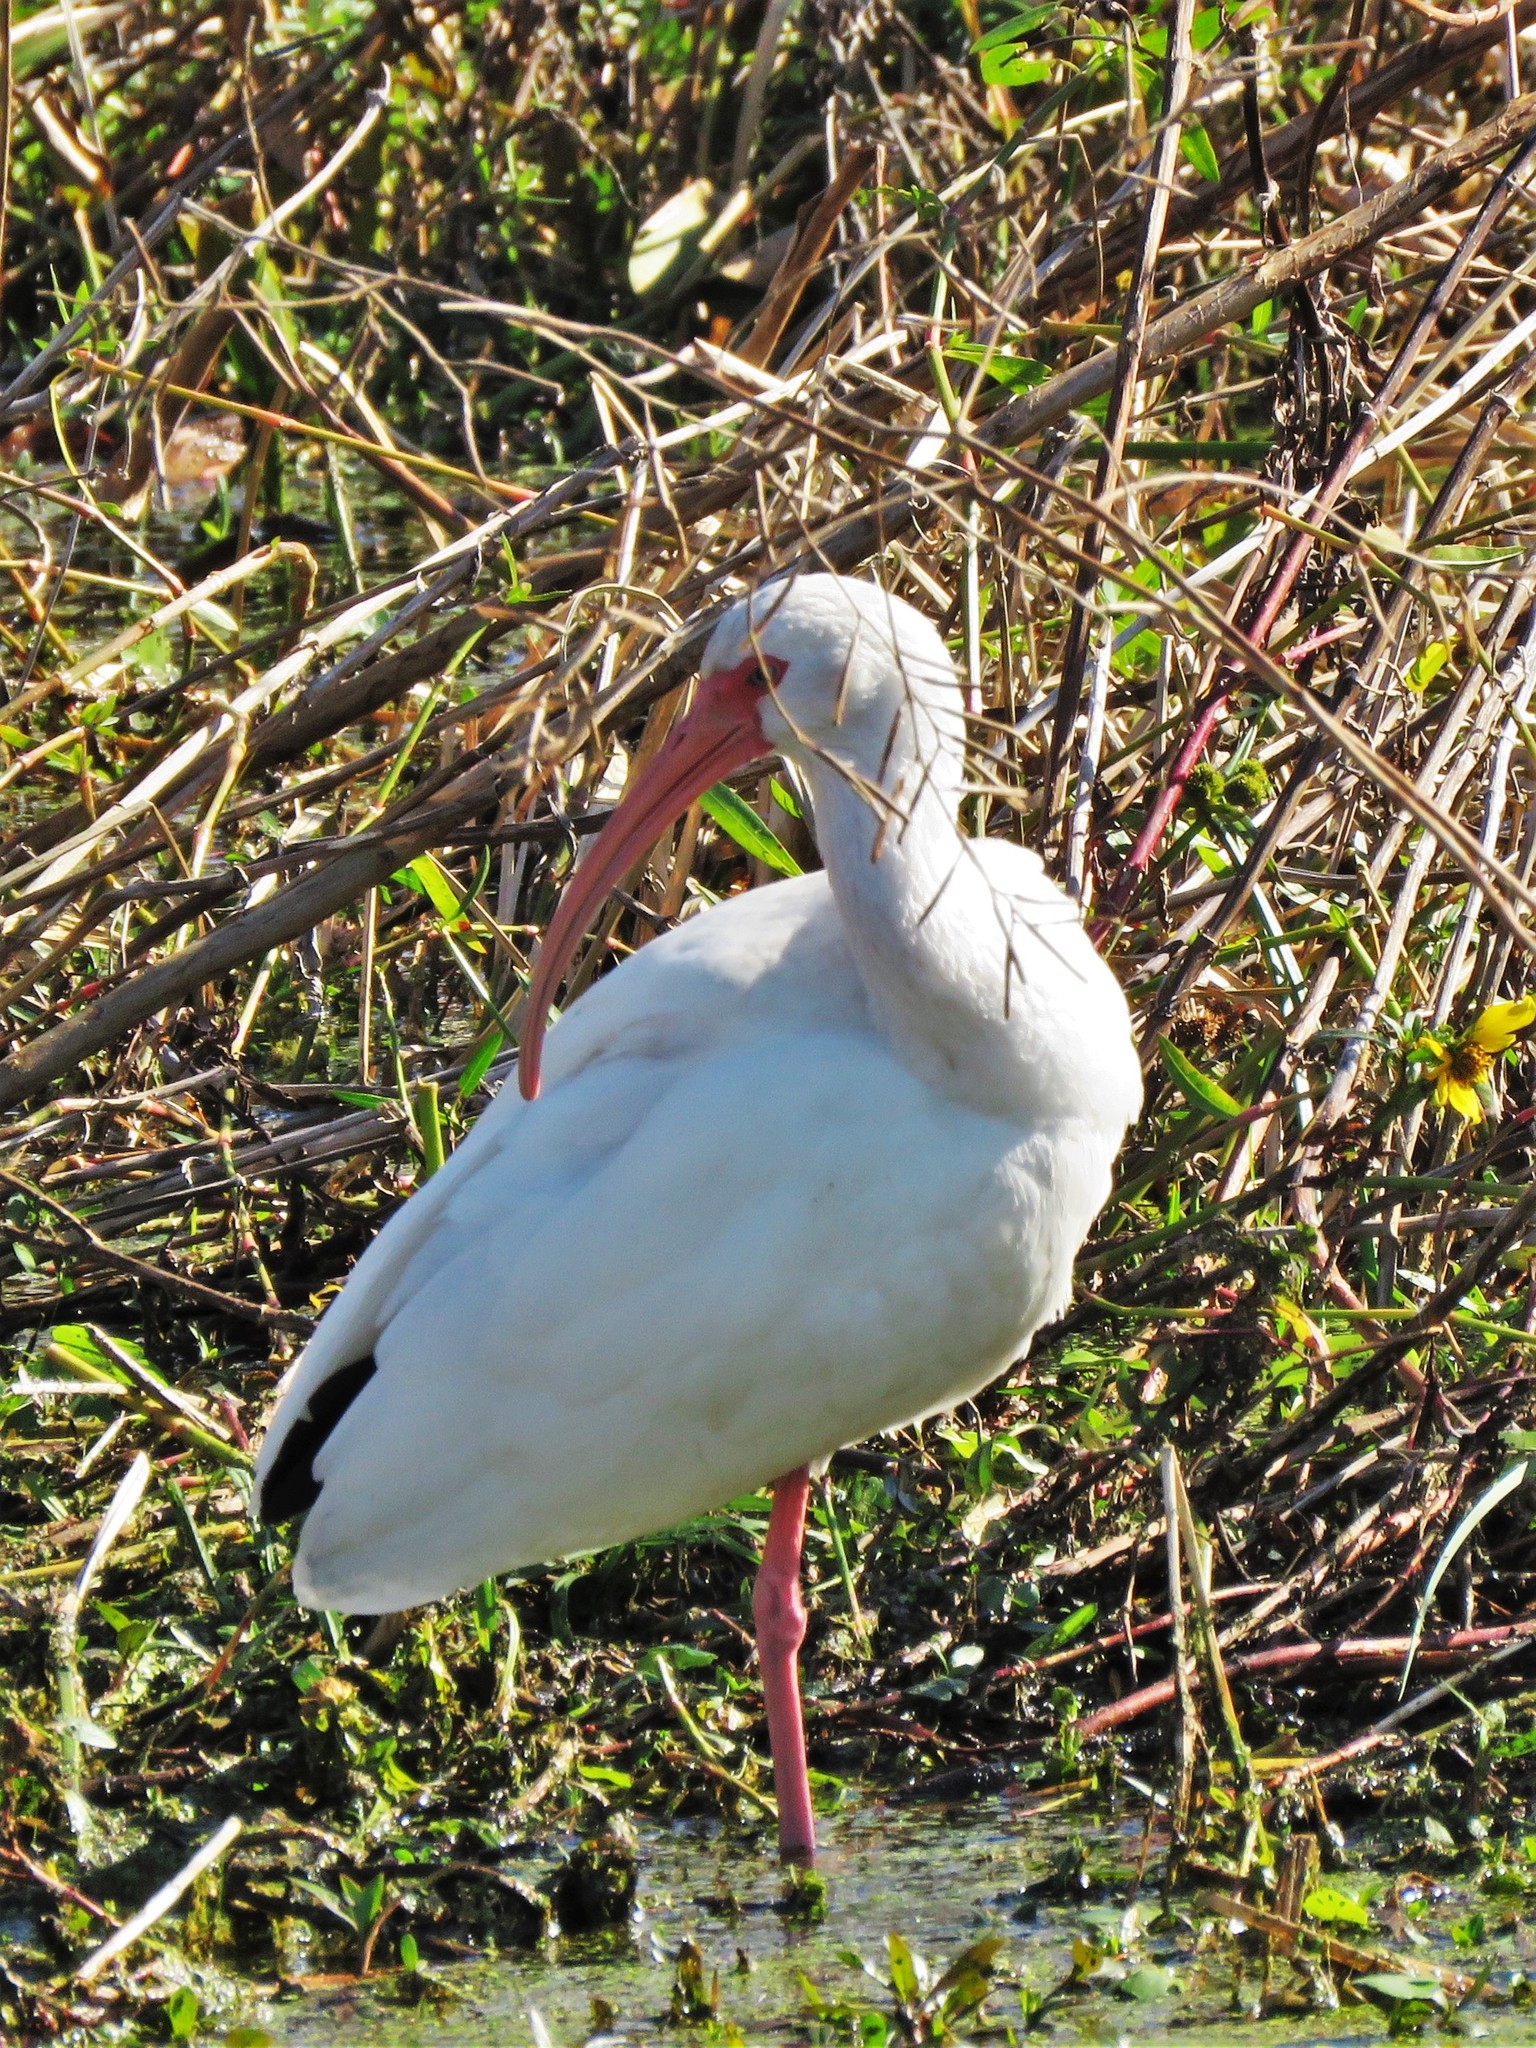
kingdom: Animalia
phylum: Chordata
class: Aves
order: Pelecaniformes
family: Threskiornithidae
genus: Eudocimus
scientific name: Eudocimus albus
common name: White ibis
